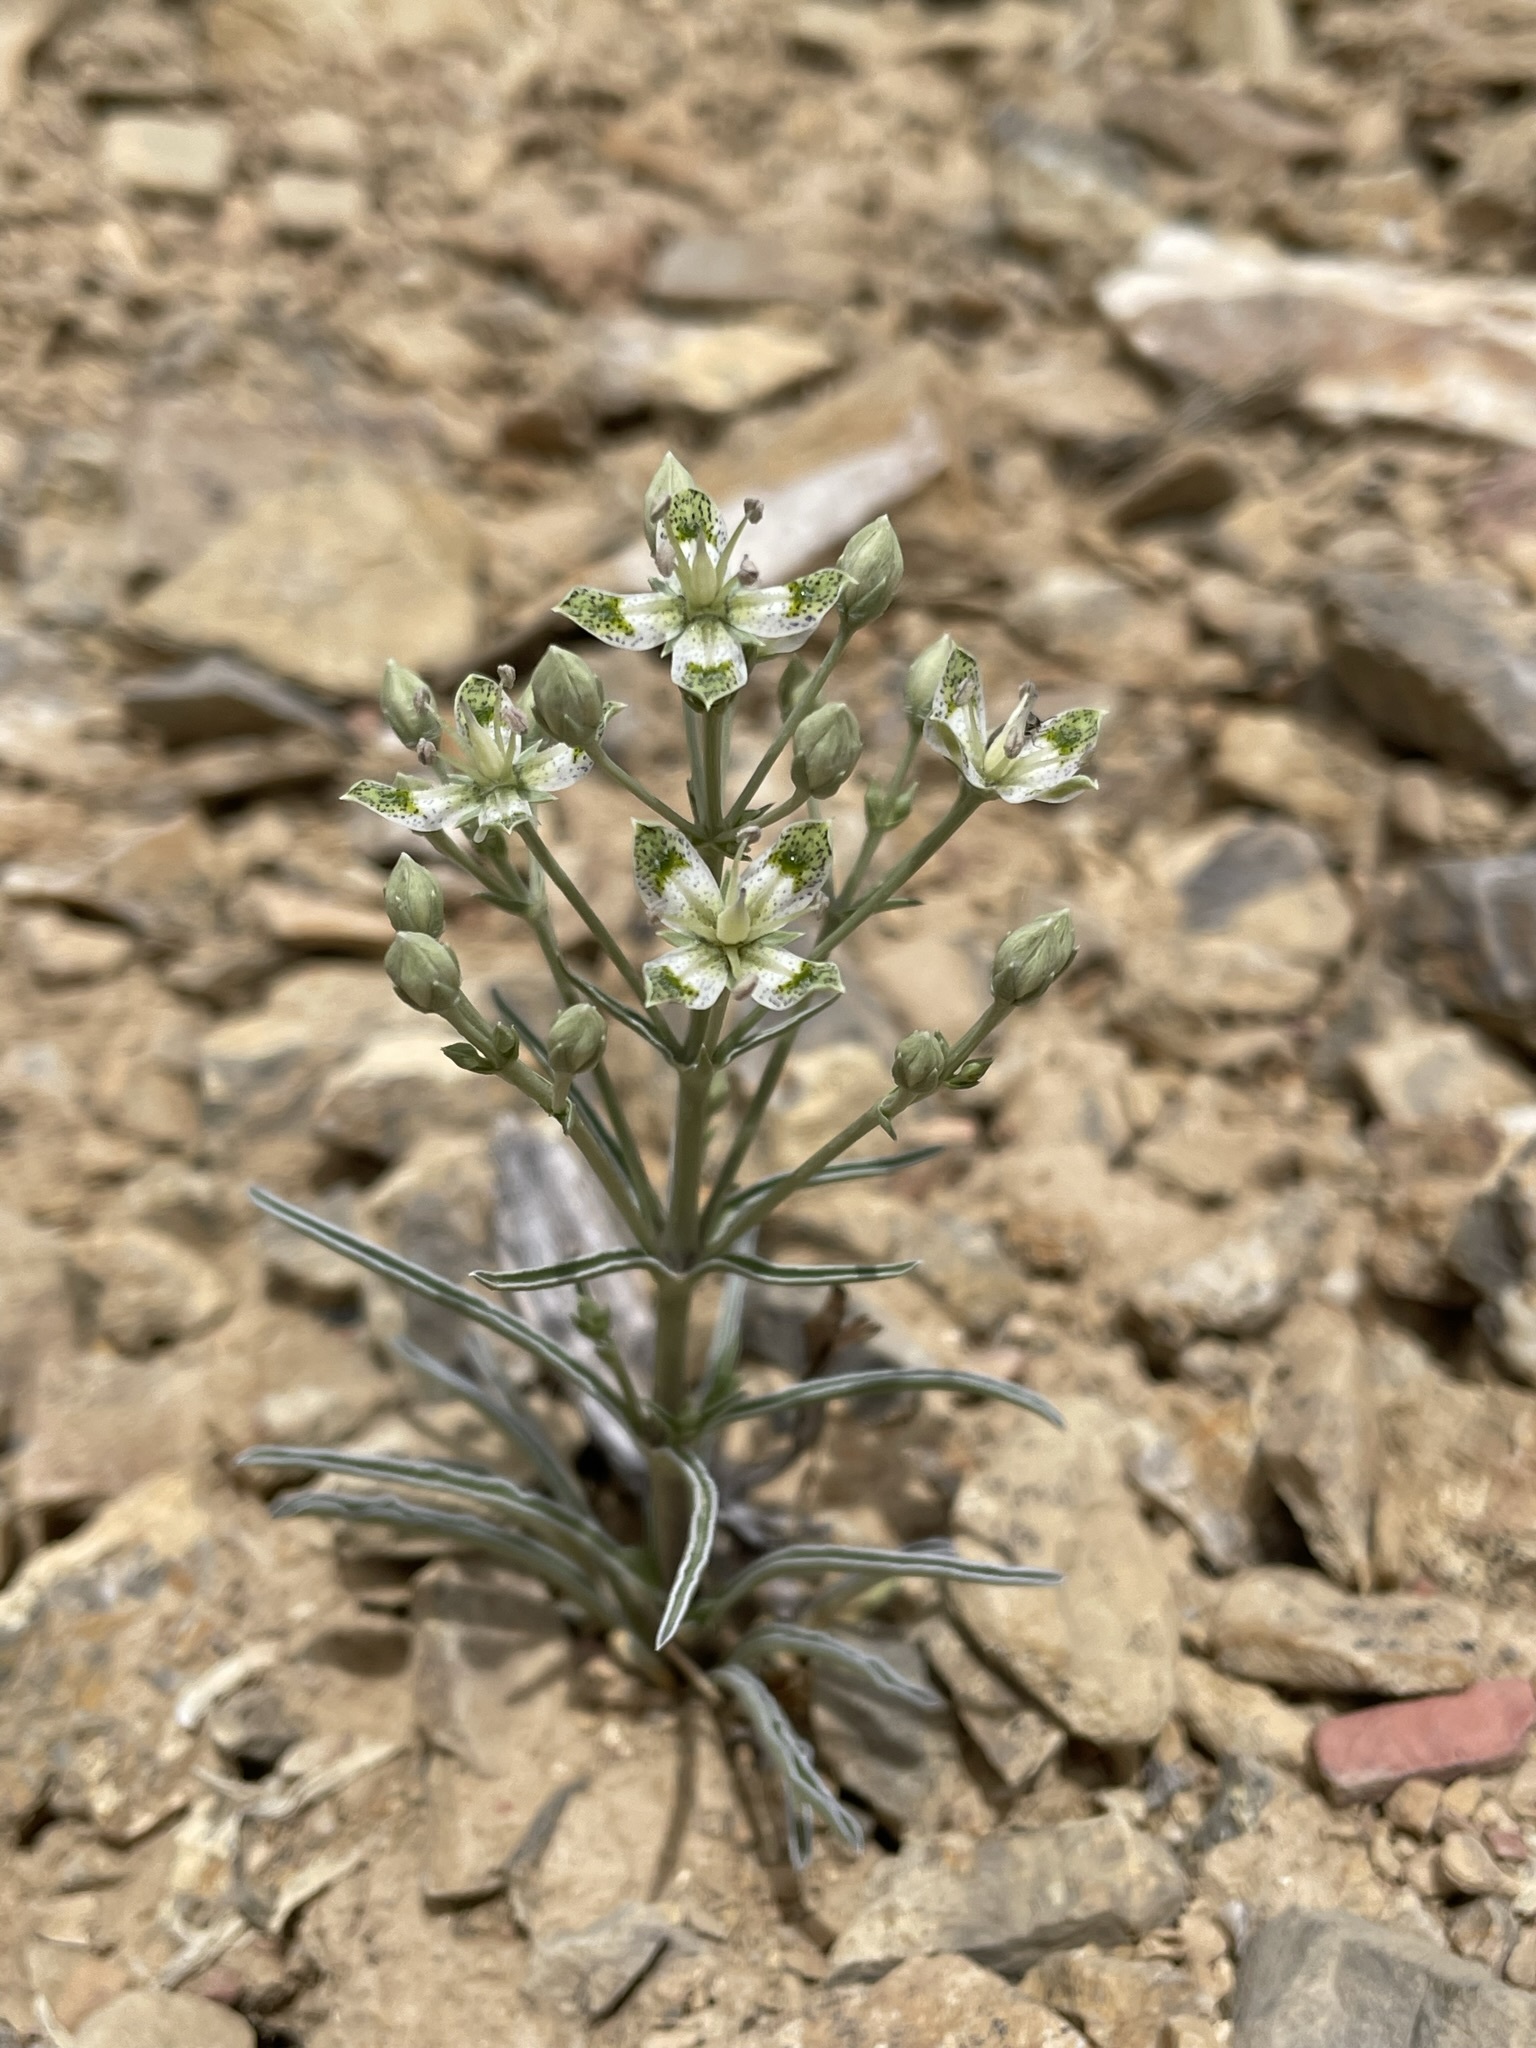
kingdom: Plantae
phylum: Tracheophyta
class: Magnoliopsida
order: Gentianales
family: Gentianaceae
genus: Frasera
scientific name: Frasera albomarginata
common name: Desert frasera
